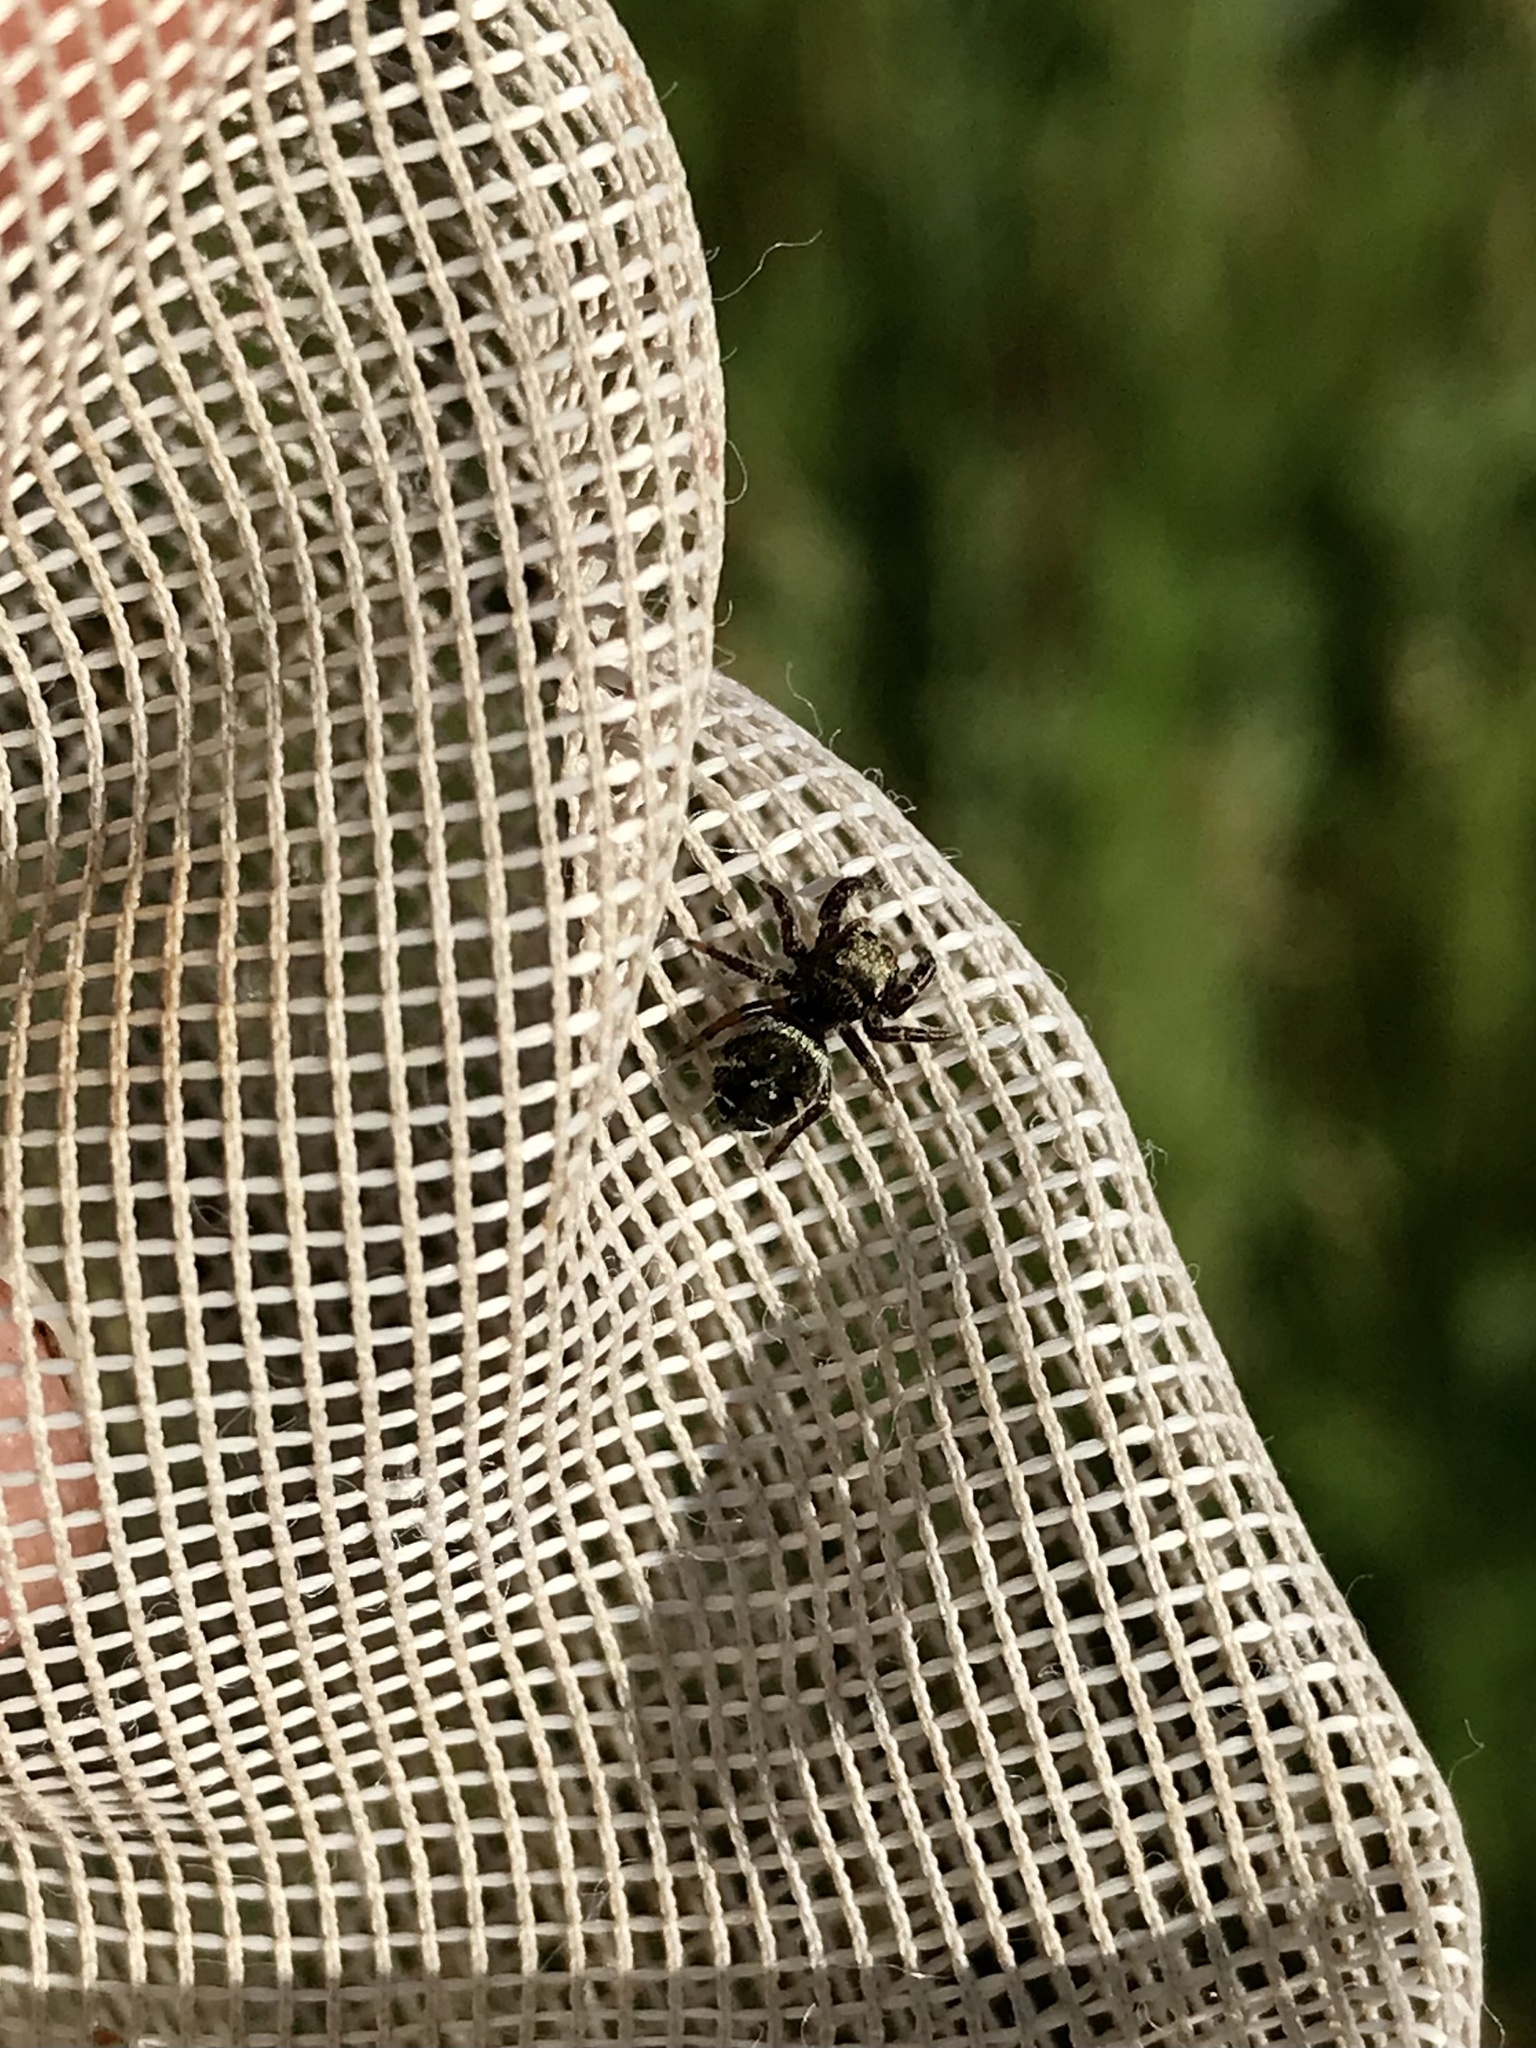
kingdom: Animalia
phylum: Arthropoda
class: Arachnida
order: Araneae
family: Salticidae
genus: Phidippus
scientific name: Phidippus cryptus
